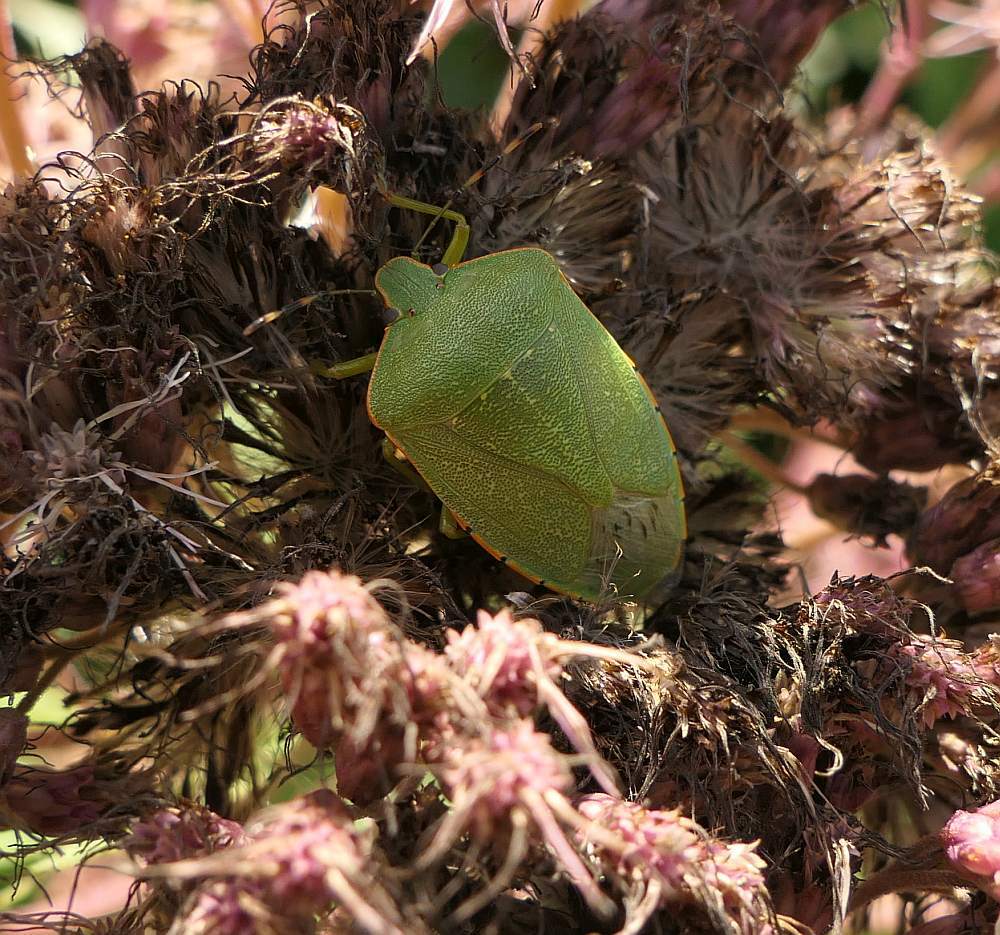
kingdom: Animalia
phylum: Arthropoda
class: Insecta
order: Hemiptera
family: Pentatomidae
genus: Chinavia
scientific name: Chinavia hilaris
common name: Green stink bug
